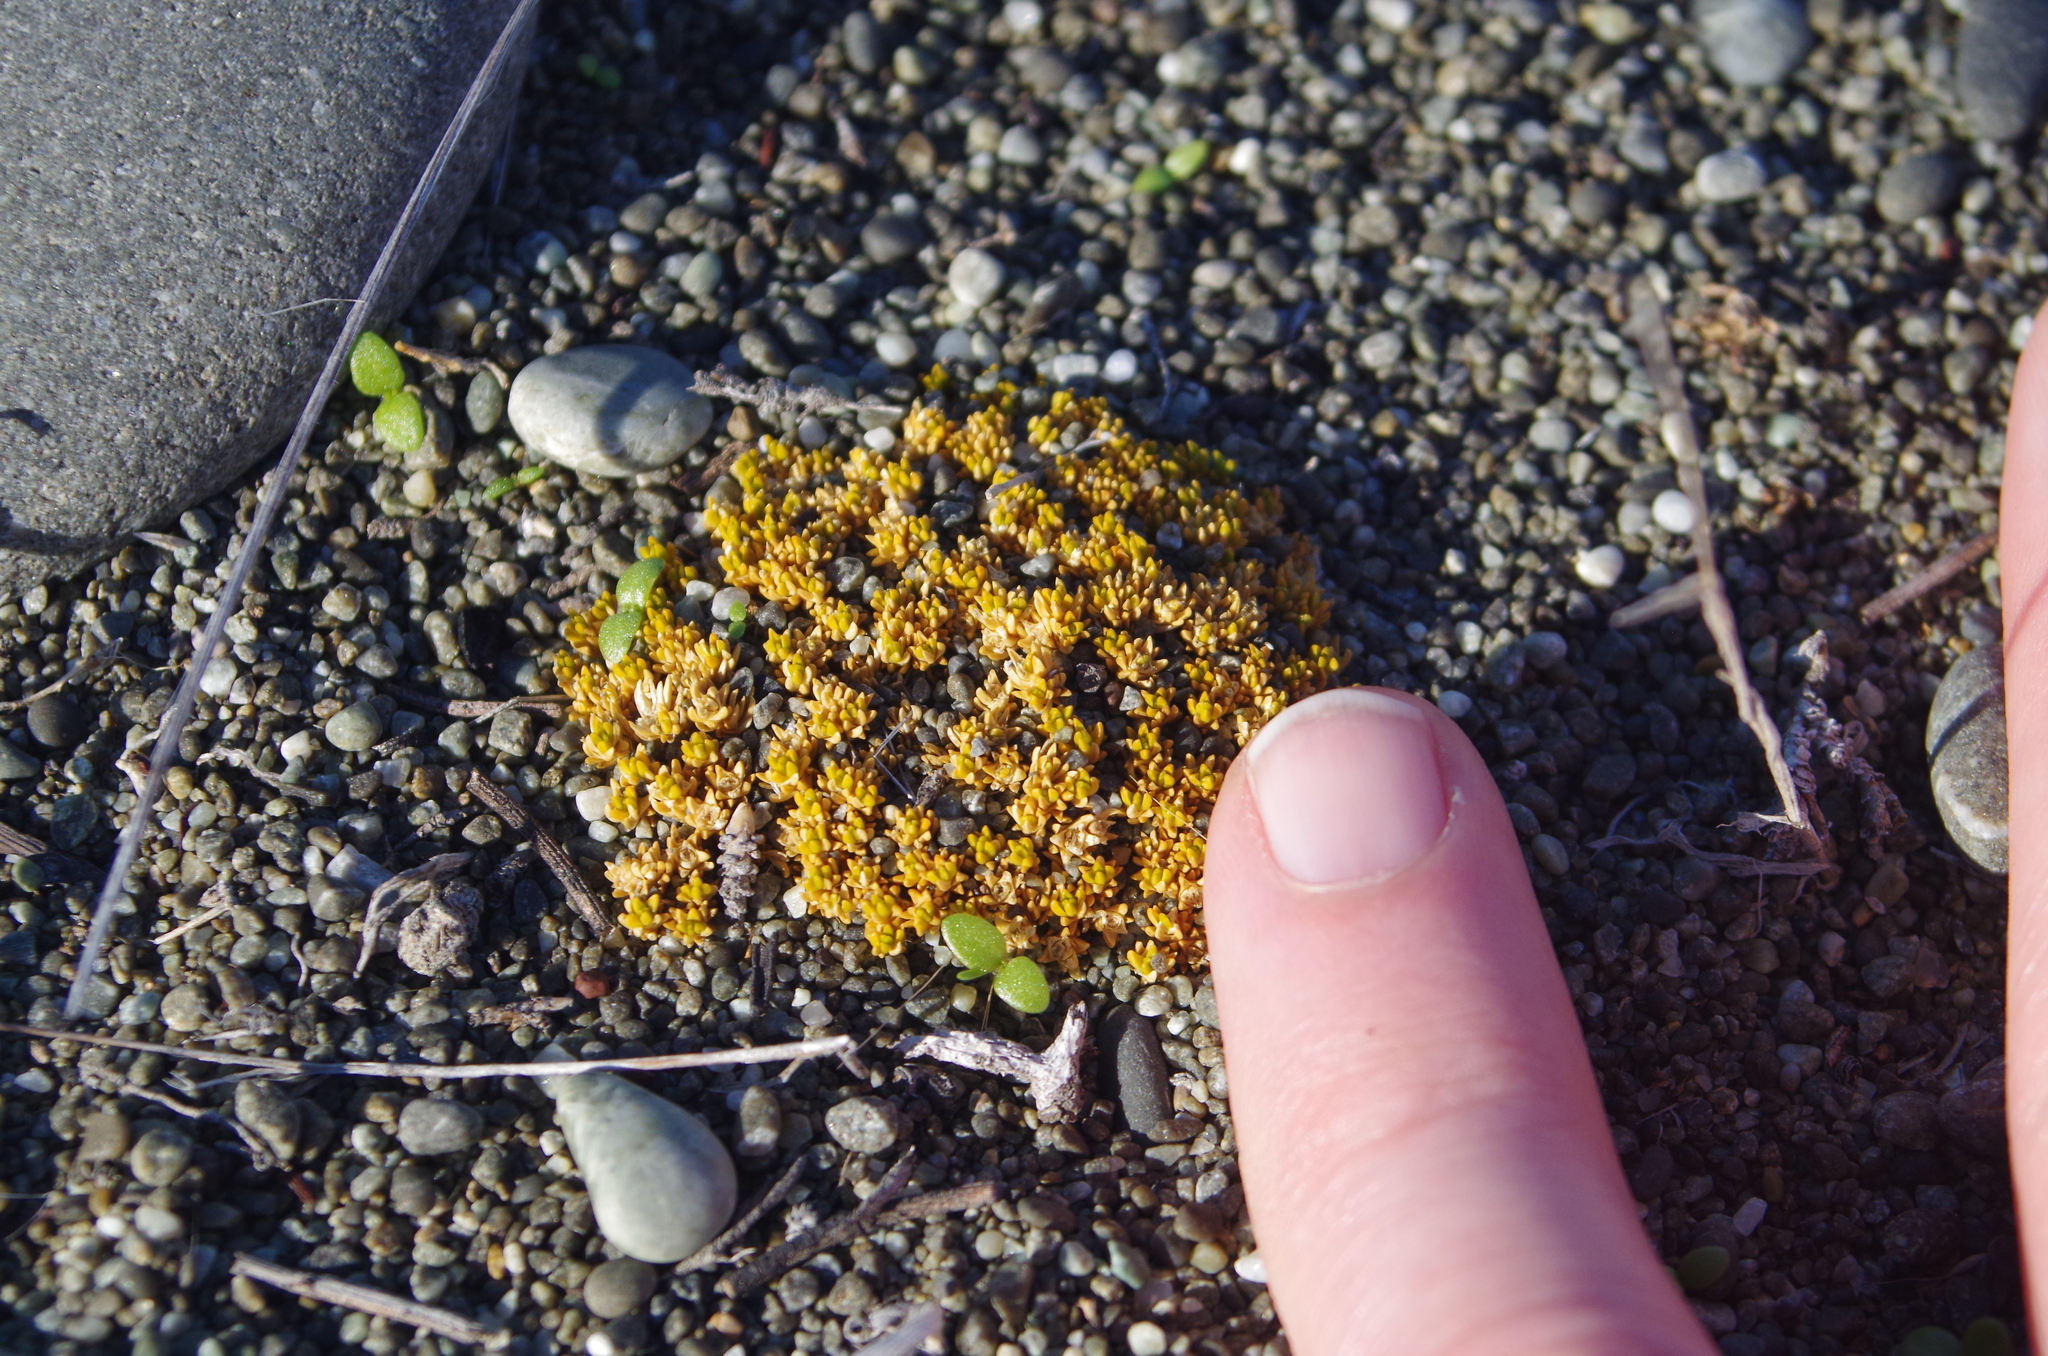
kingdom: Plantae
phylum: Tracheophyta
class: Magnoliopsida
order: Caryophyllales
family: Caryophyllaceae
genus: Scleranthus
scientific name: Scleranthus uniflorus
